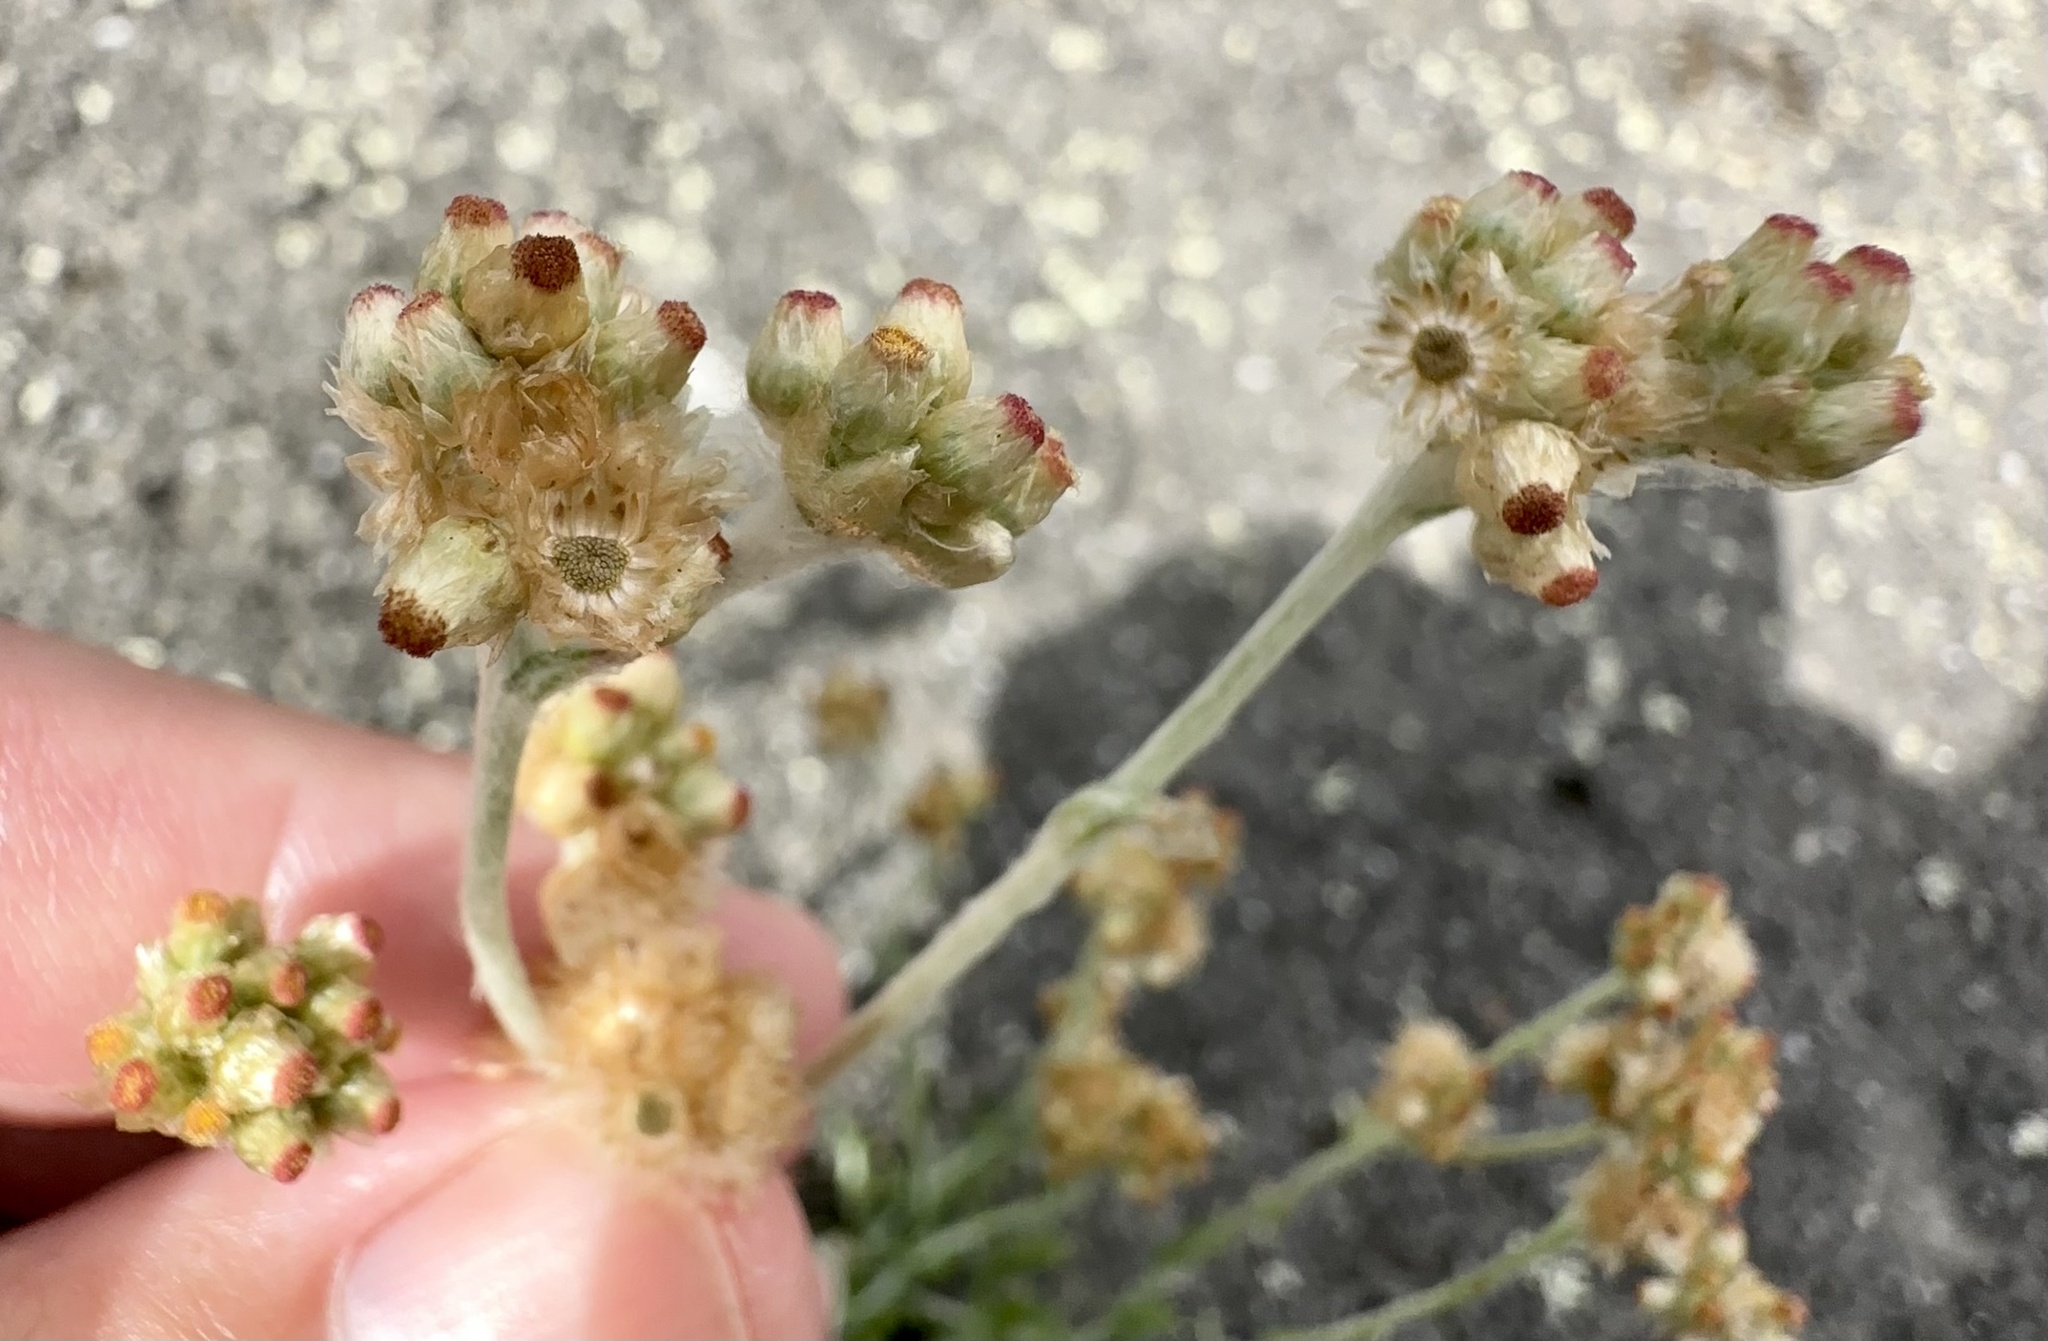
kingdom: Plantae
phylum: Tracheophyta
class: Magnoliopsida
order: Asterales
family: Asteraceae
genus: Helichrysum
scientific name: Helichrysum luteoalbum
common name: Daisy
